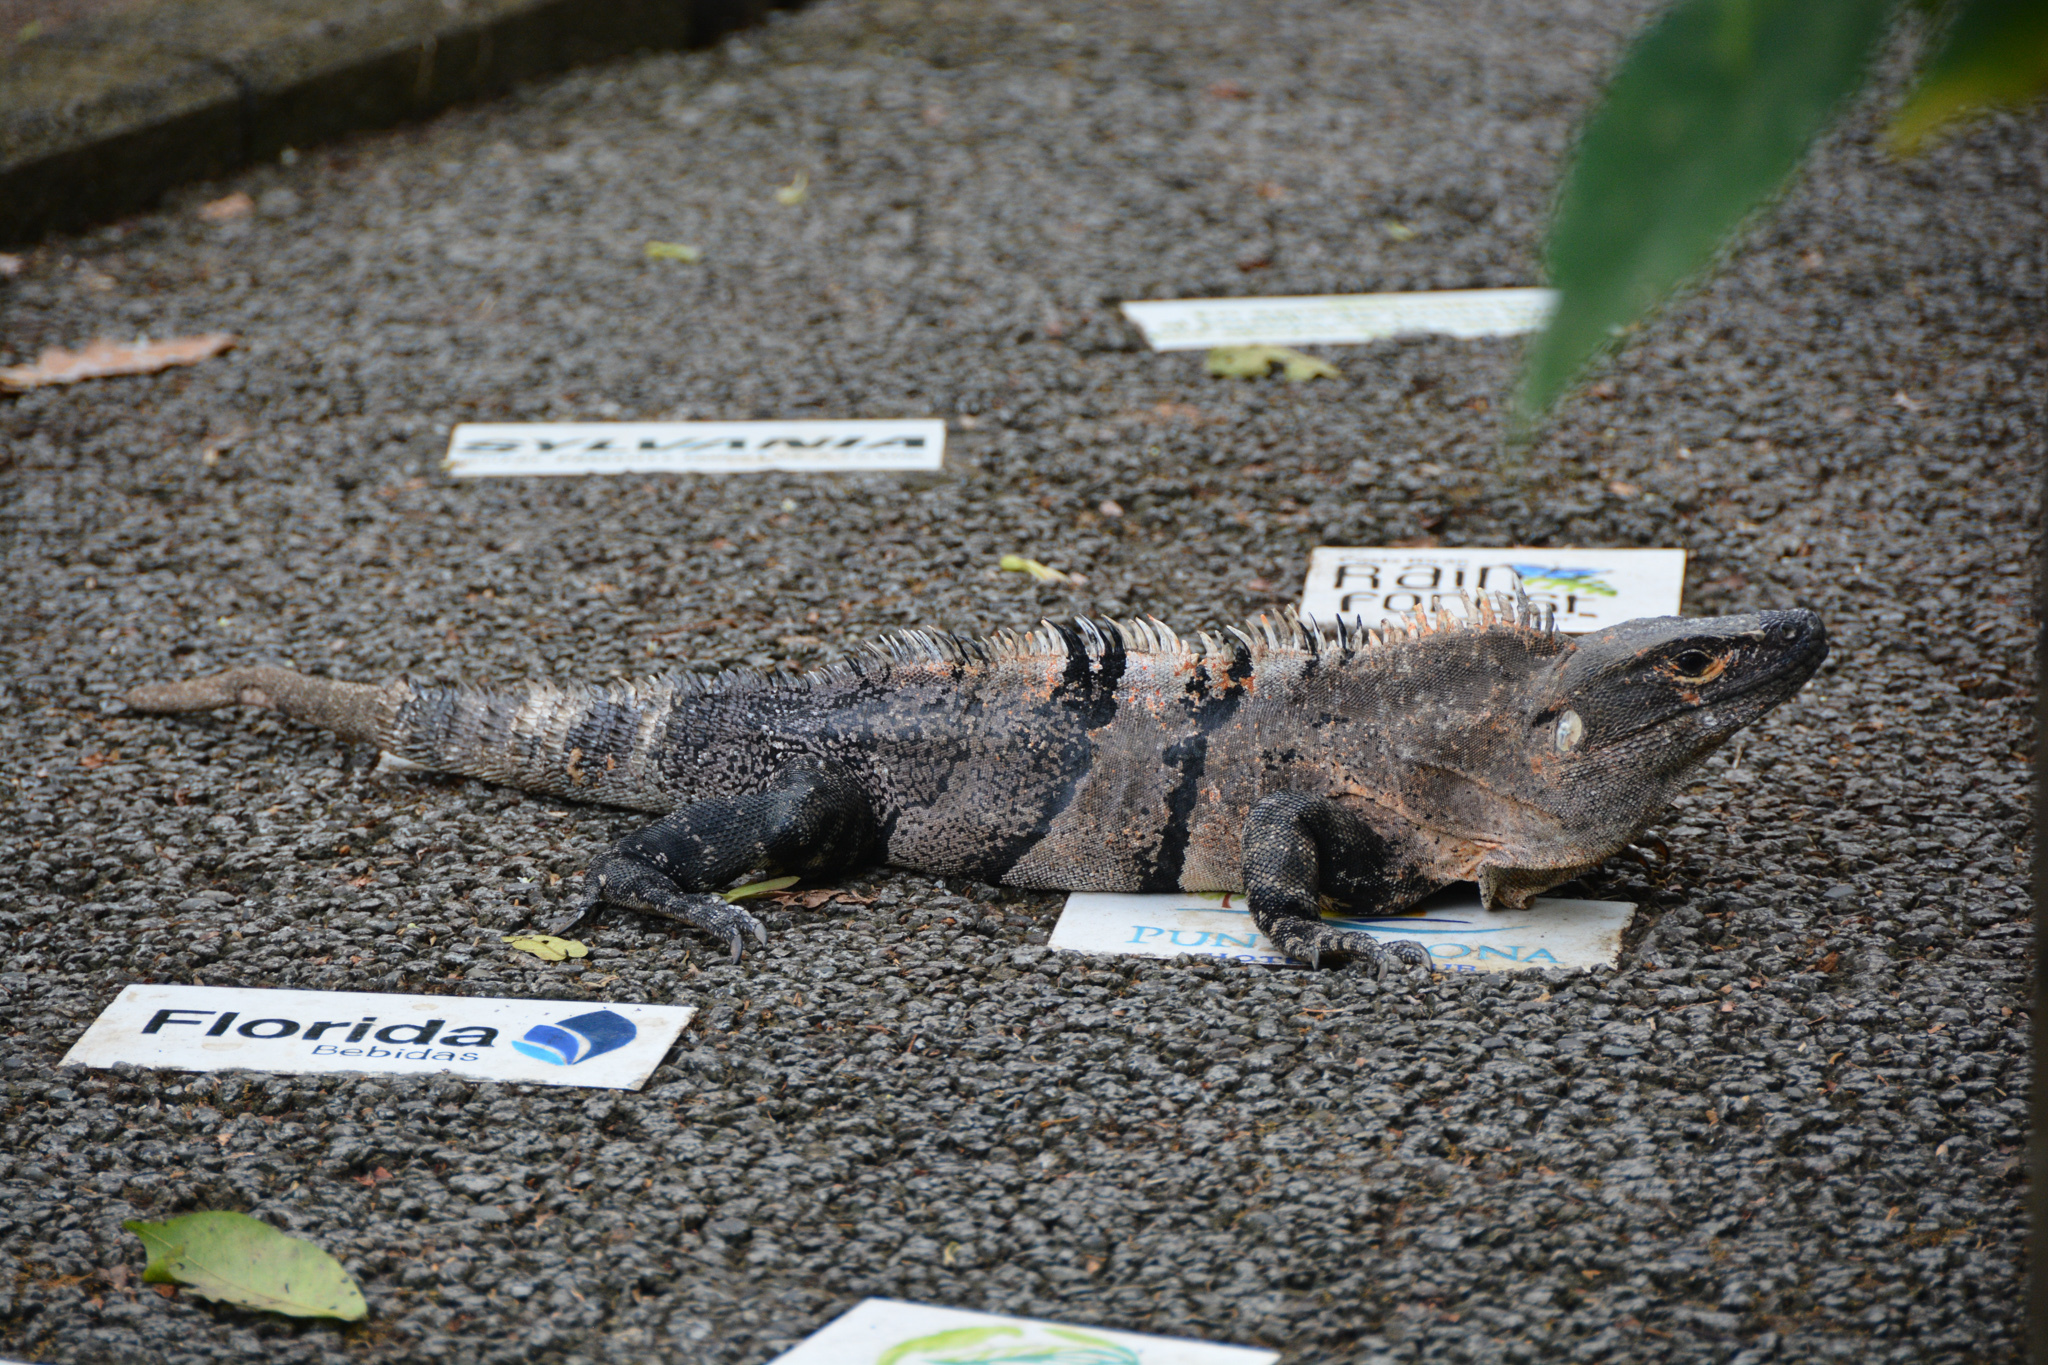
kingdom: Animalia
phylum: Chordata
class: Squamata
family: Iguanidae
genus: Ctenosaura
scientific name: Ctenosaura similis
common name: Black spiny-tailed iguana
